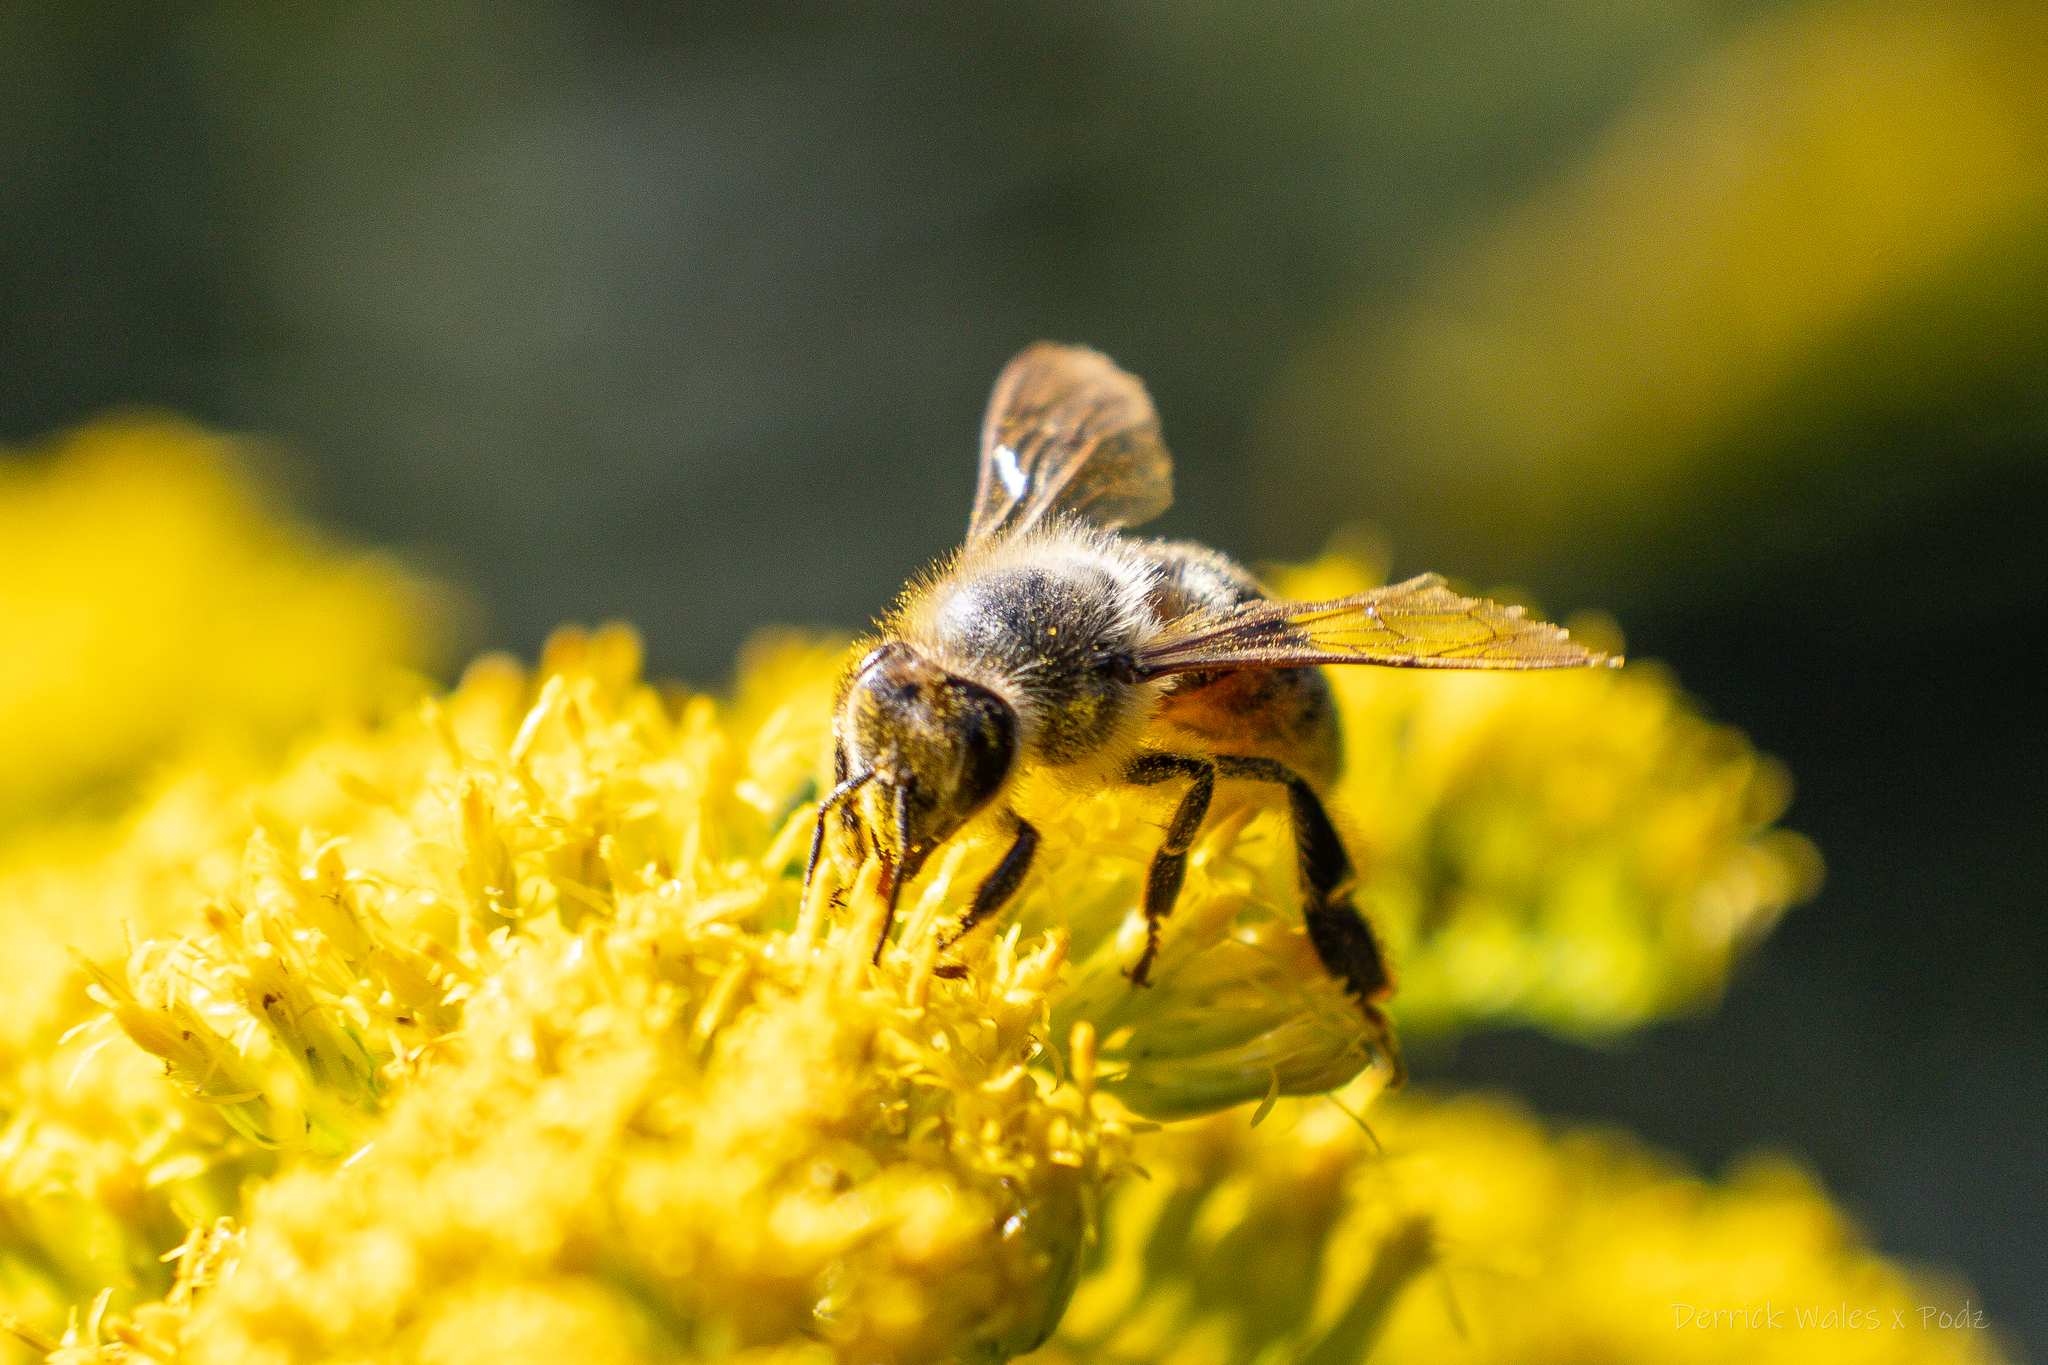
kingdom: Animalia
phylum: Arthropoda
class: Insecta
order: Hymenoptera
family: Apidae
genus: Apis
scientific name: Apis mellifera
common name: Honey bee
